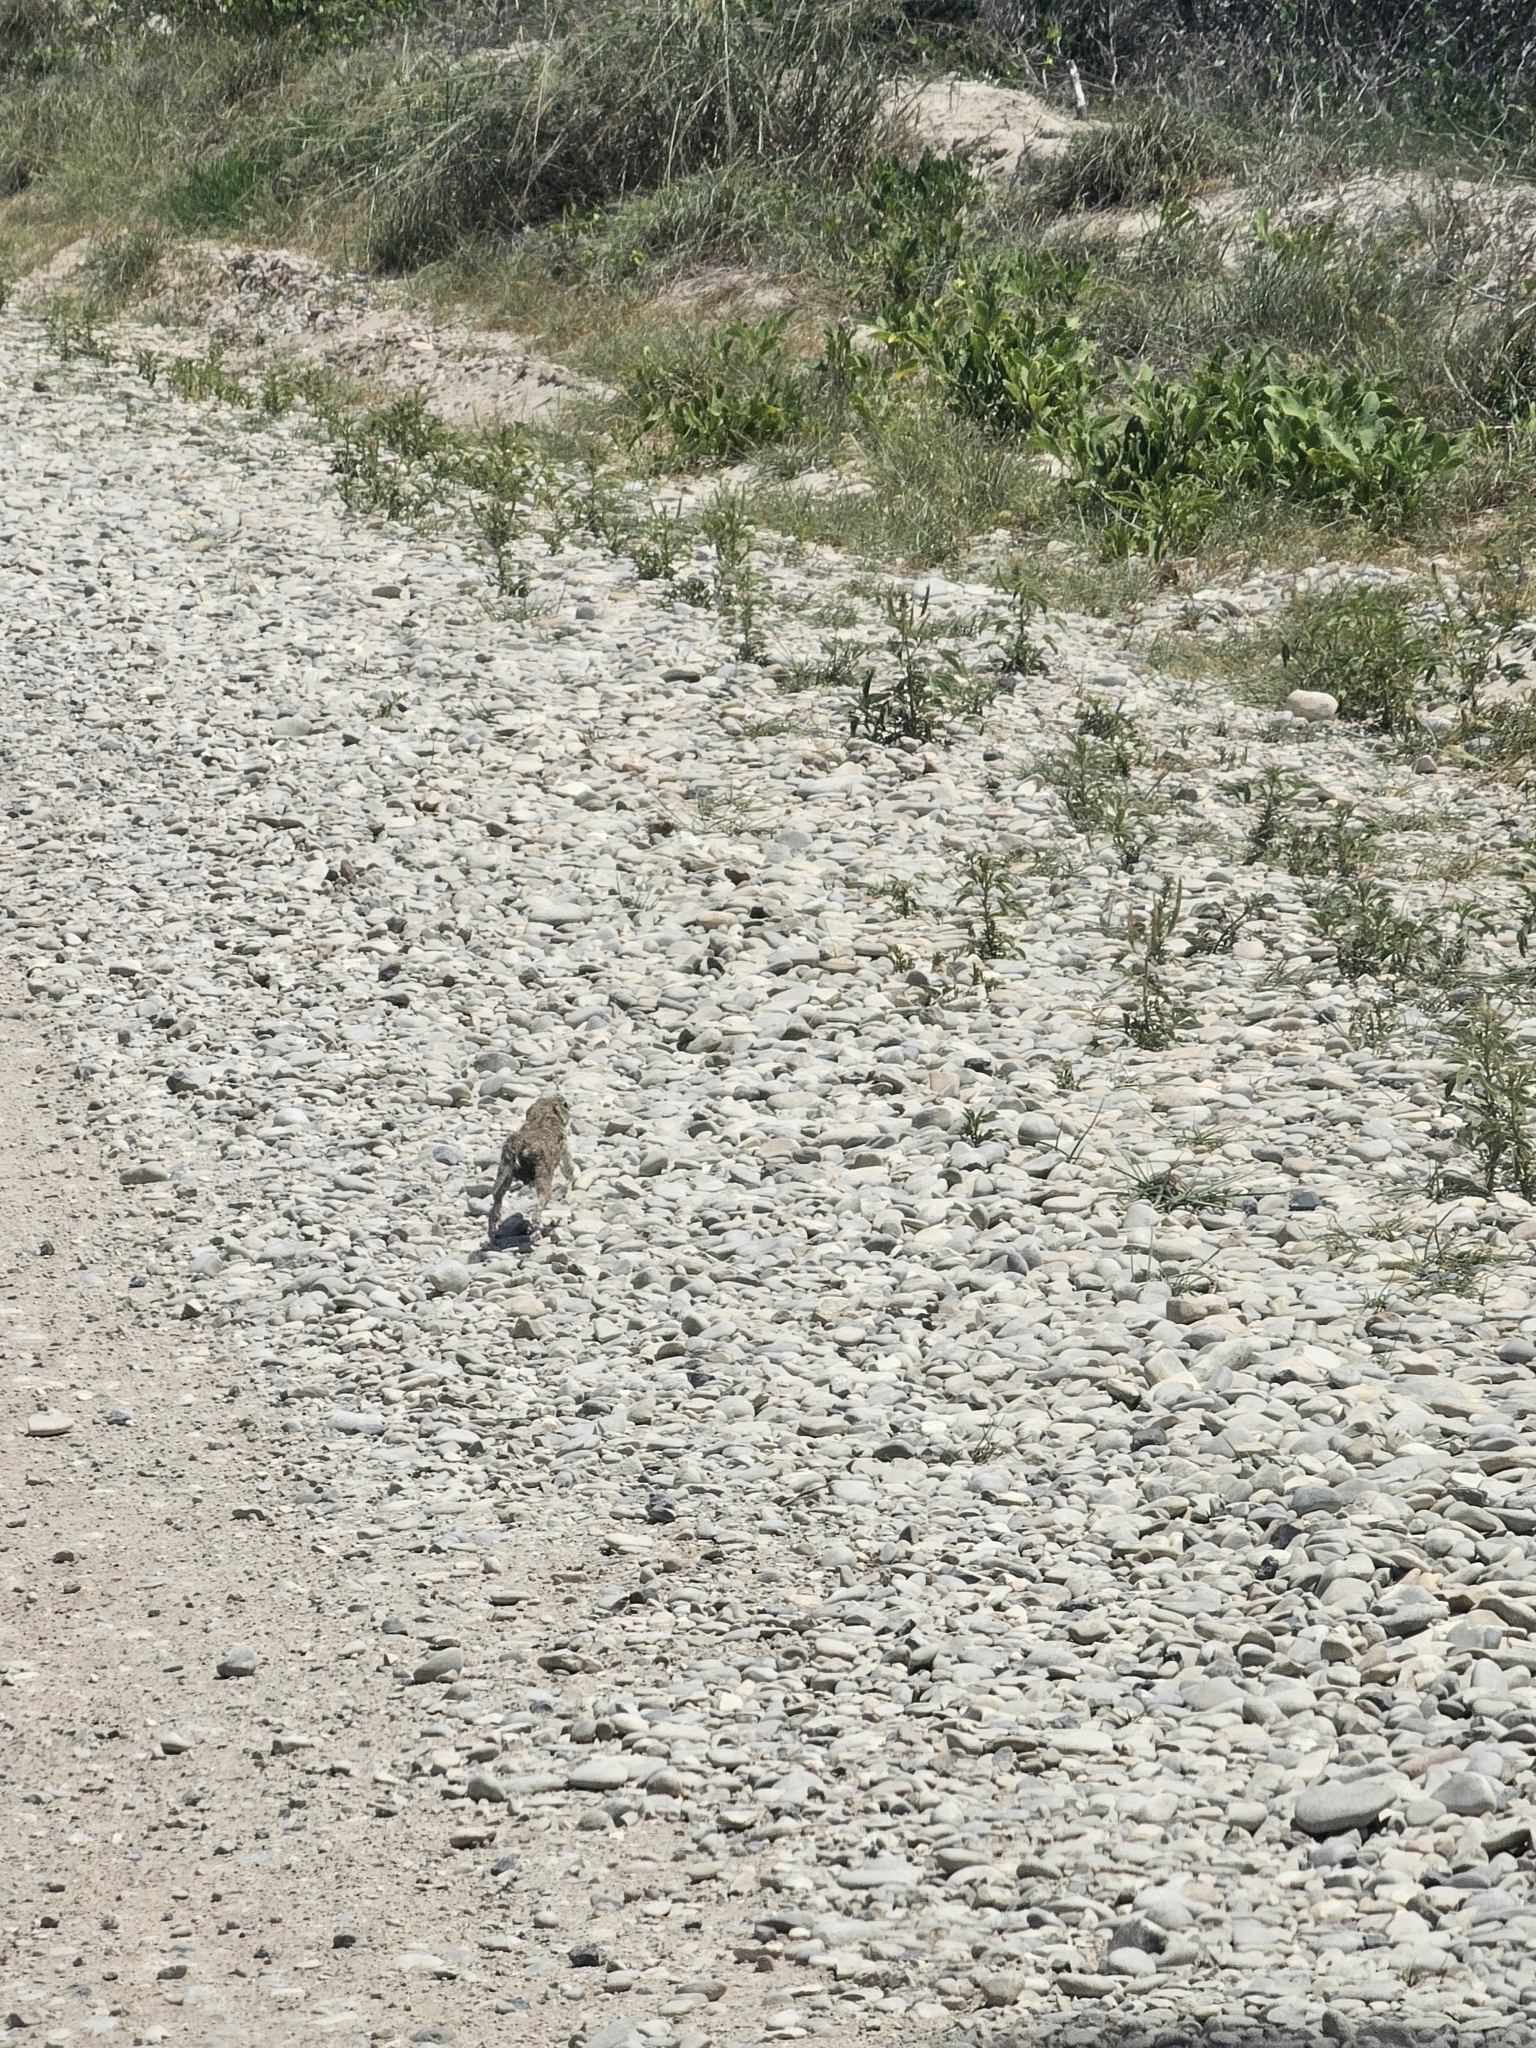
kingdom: Animalia
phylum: Chordata
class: Mammalia
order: Rodentia
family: Sciuridae
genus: Ictidomys
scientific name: Ictidomys parvidens
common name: Rio grande ground squirrel
